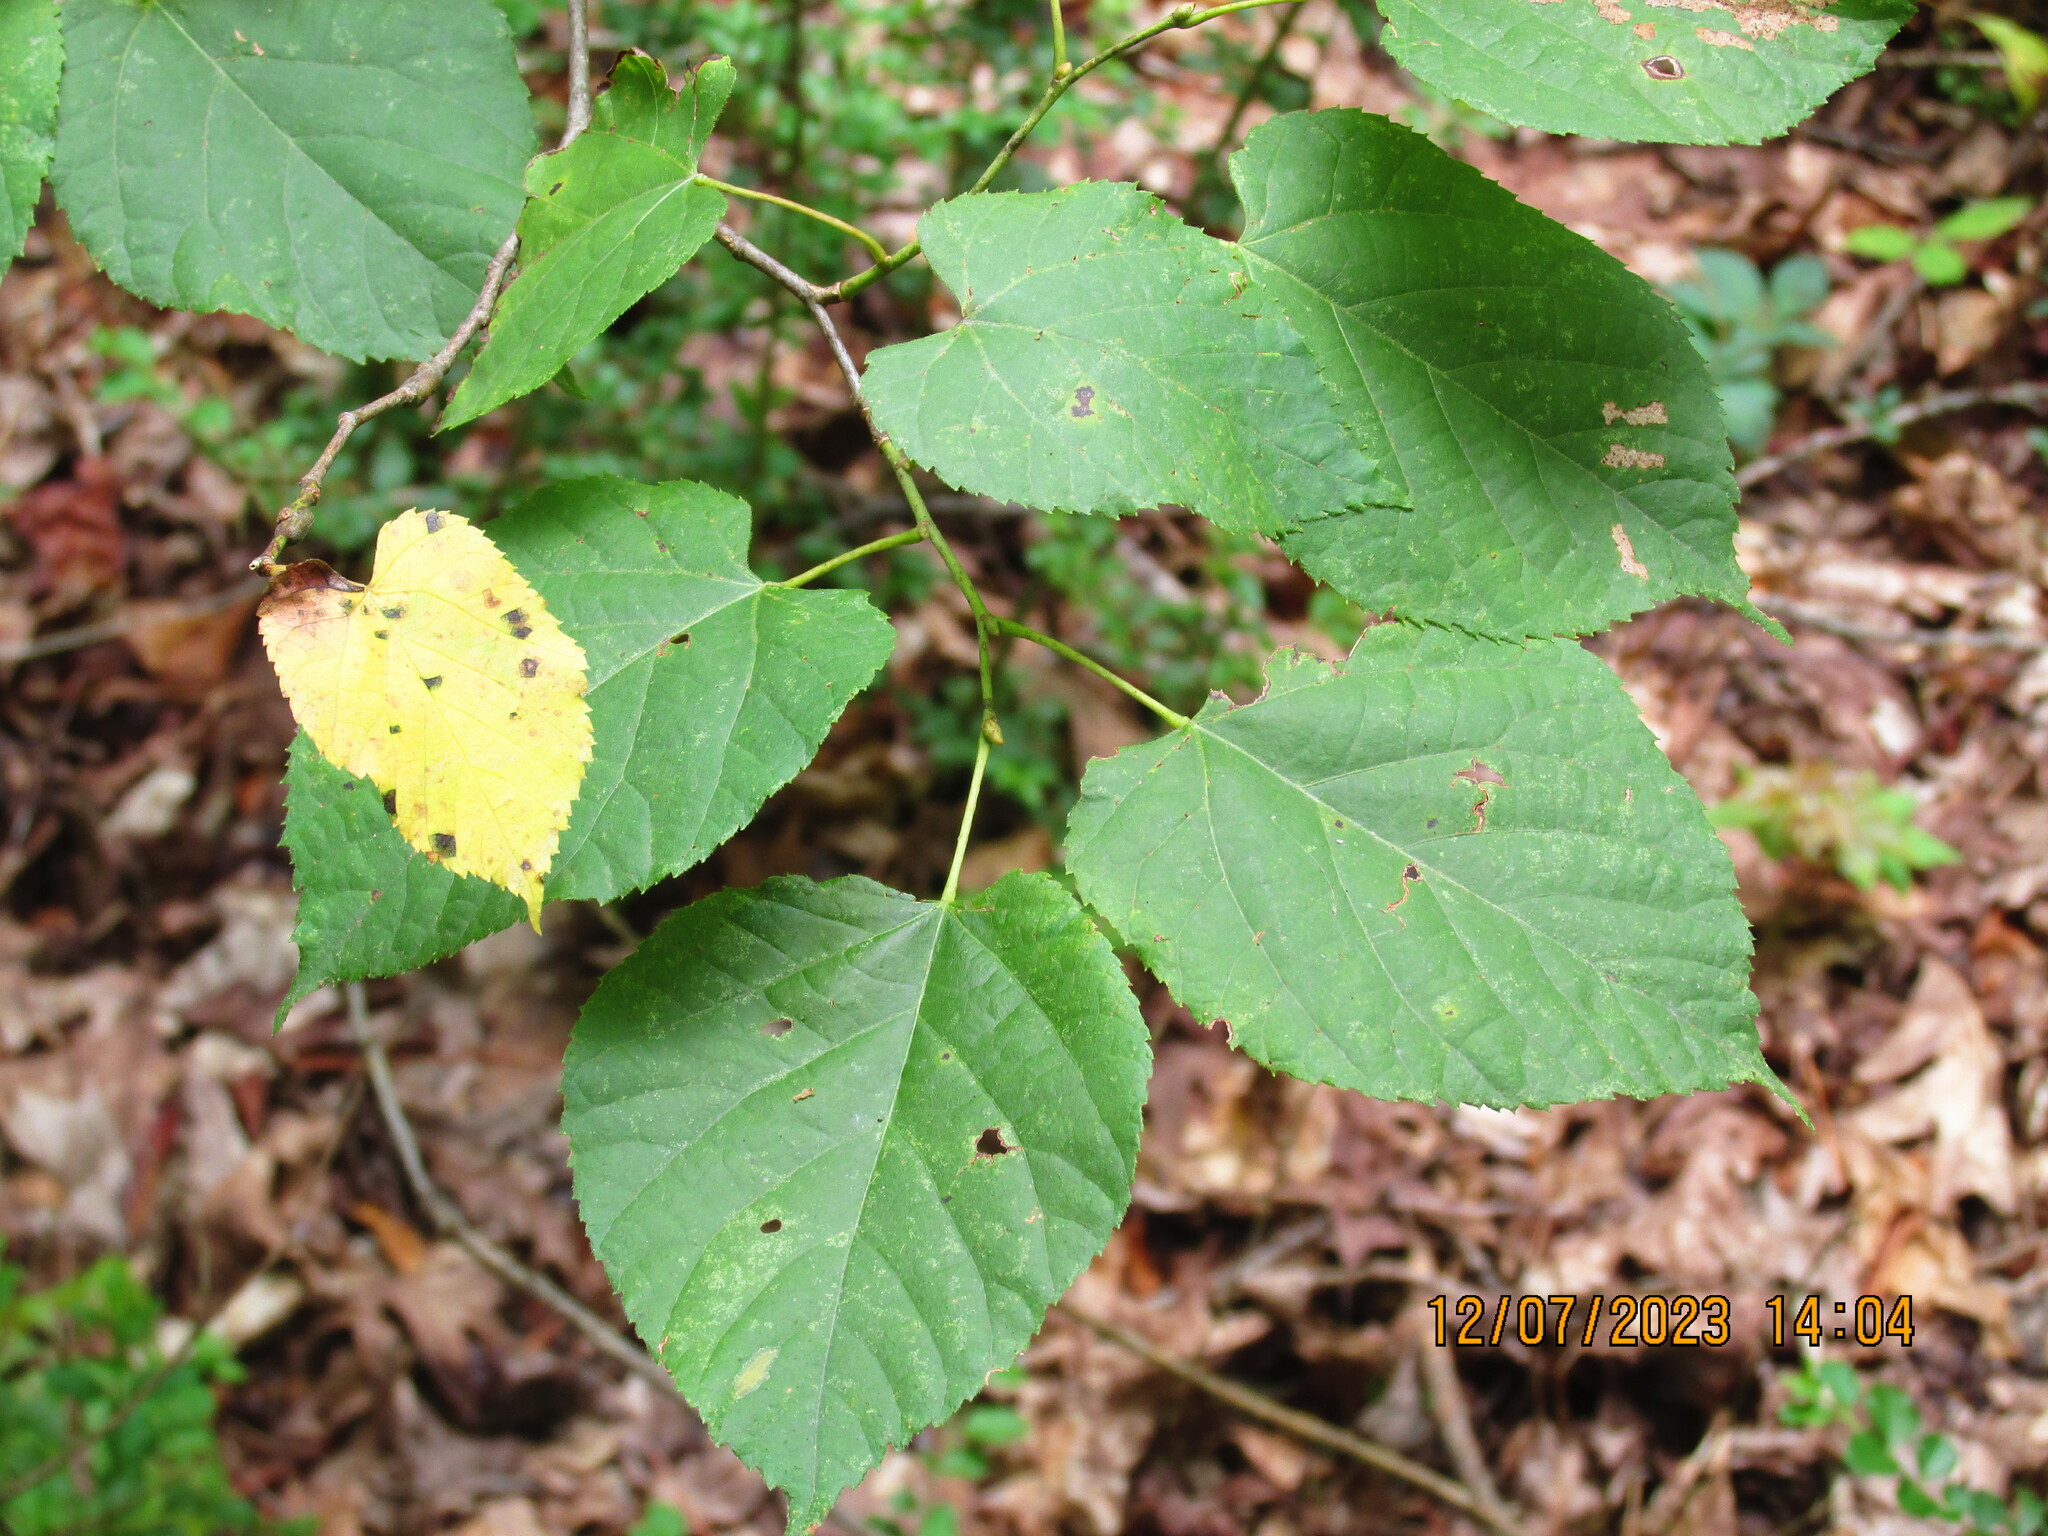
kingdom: Plantae
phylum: Tracheophyta
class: Magnoliopsida
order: Malvales
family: Malvaceae
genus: Tilia
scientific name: Tilia americana
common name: Basswood
